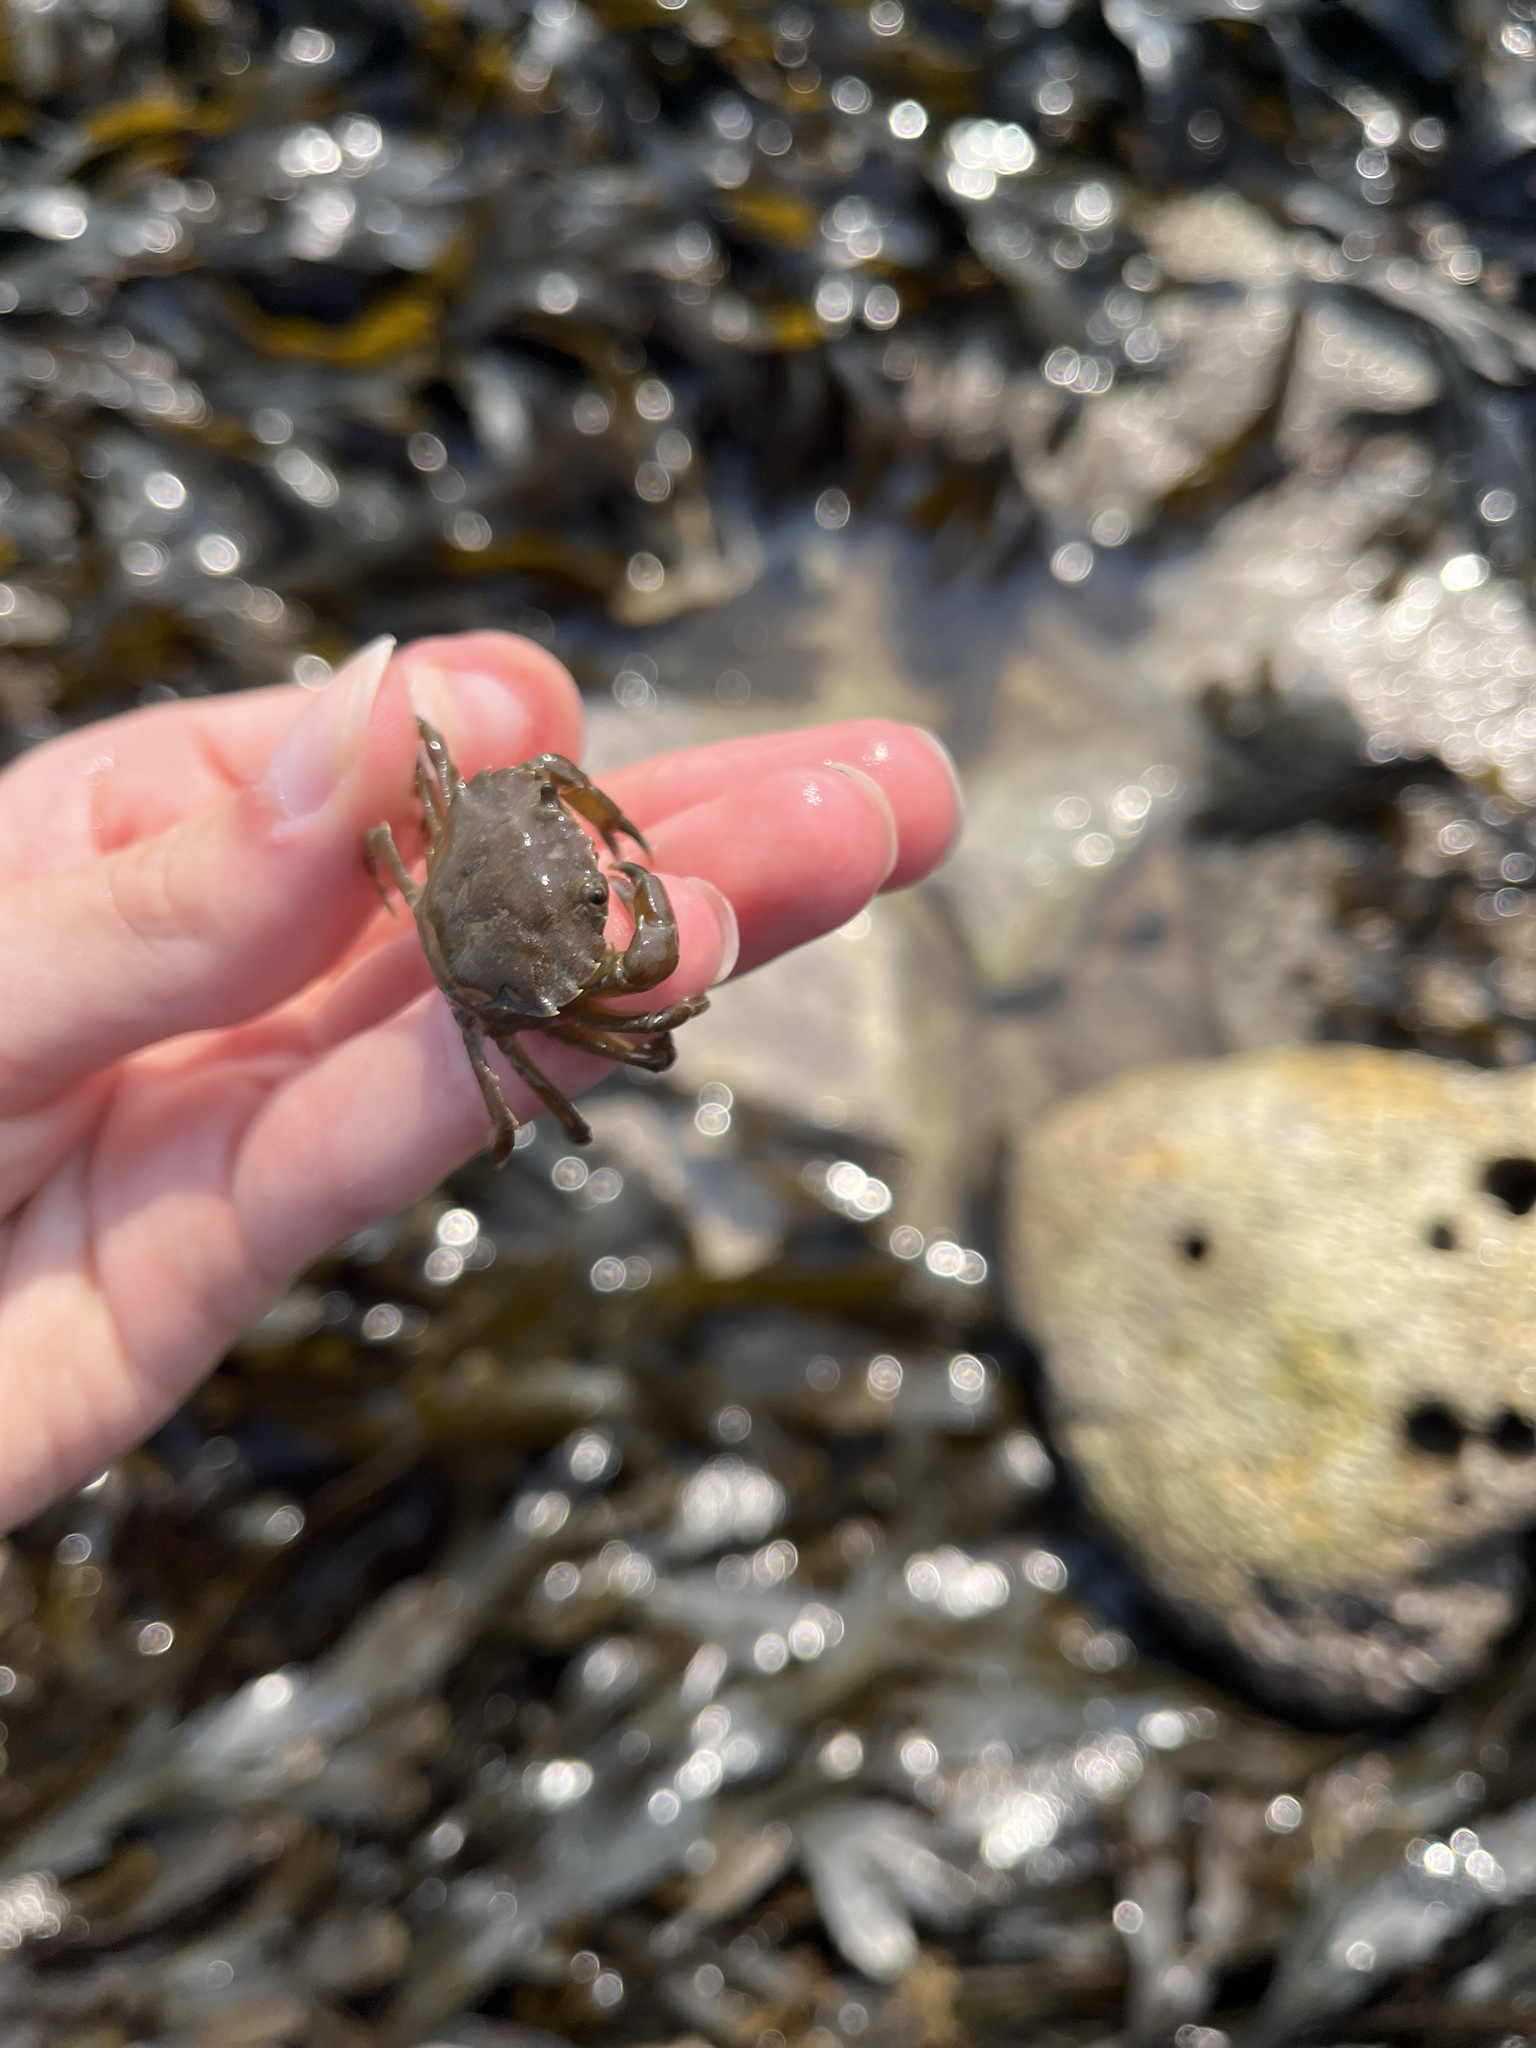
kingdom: Animalia
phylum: Arthropoda
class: Malacostraca
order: Decapoda
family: Carcinidae
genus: Carcinus
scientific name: Carcinus maenas
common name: European green crab
